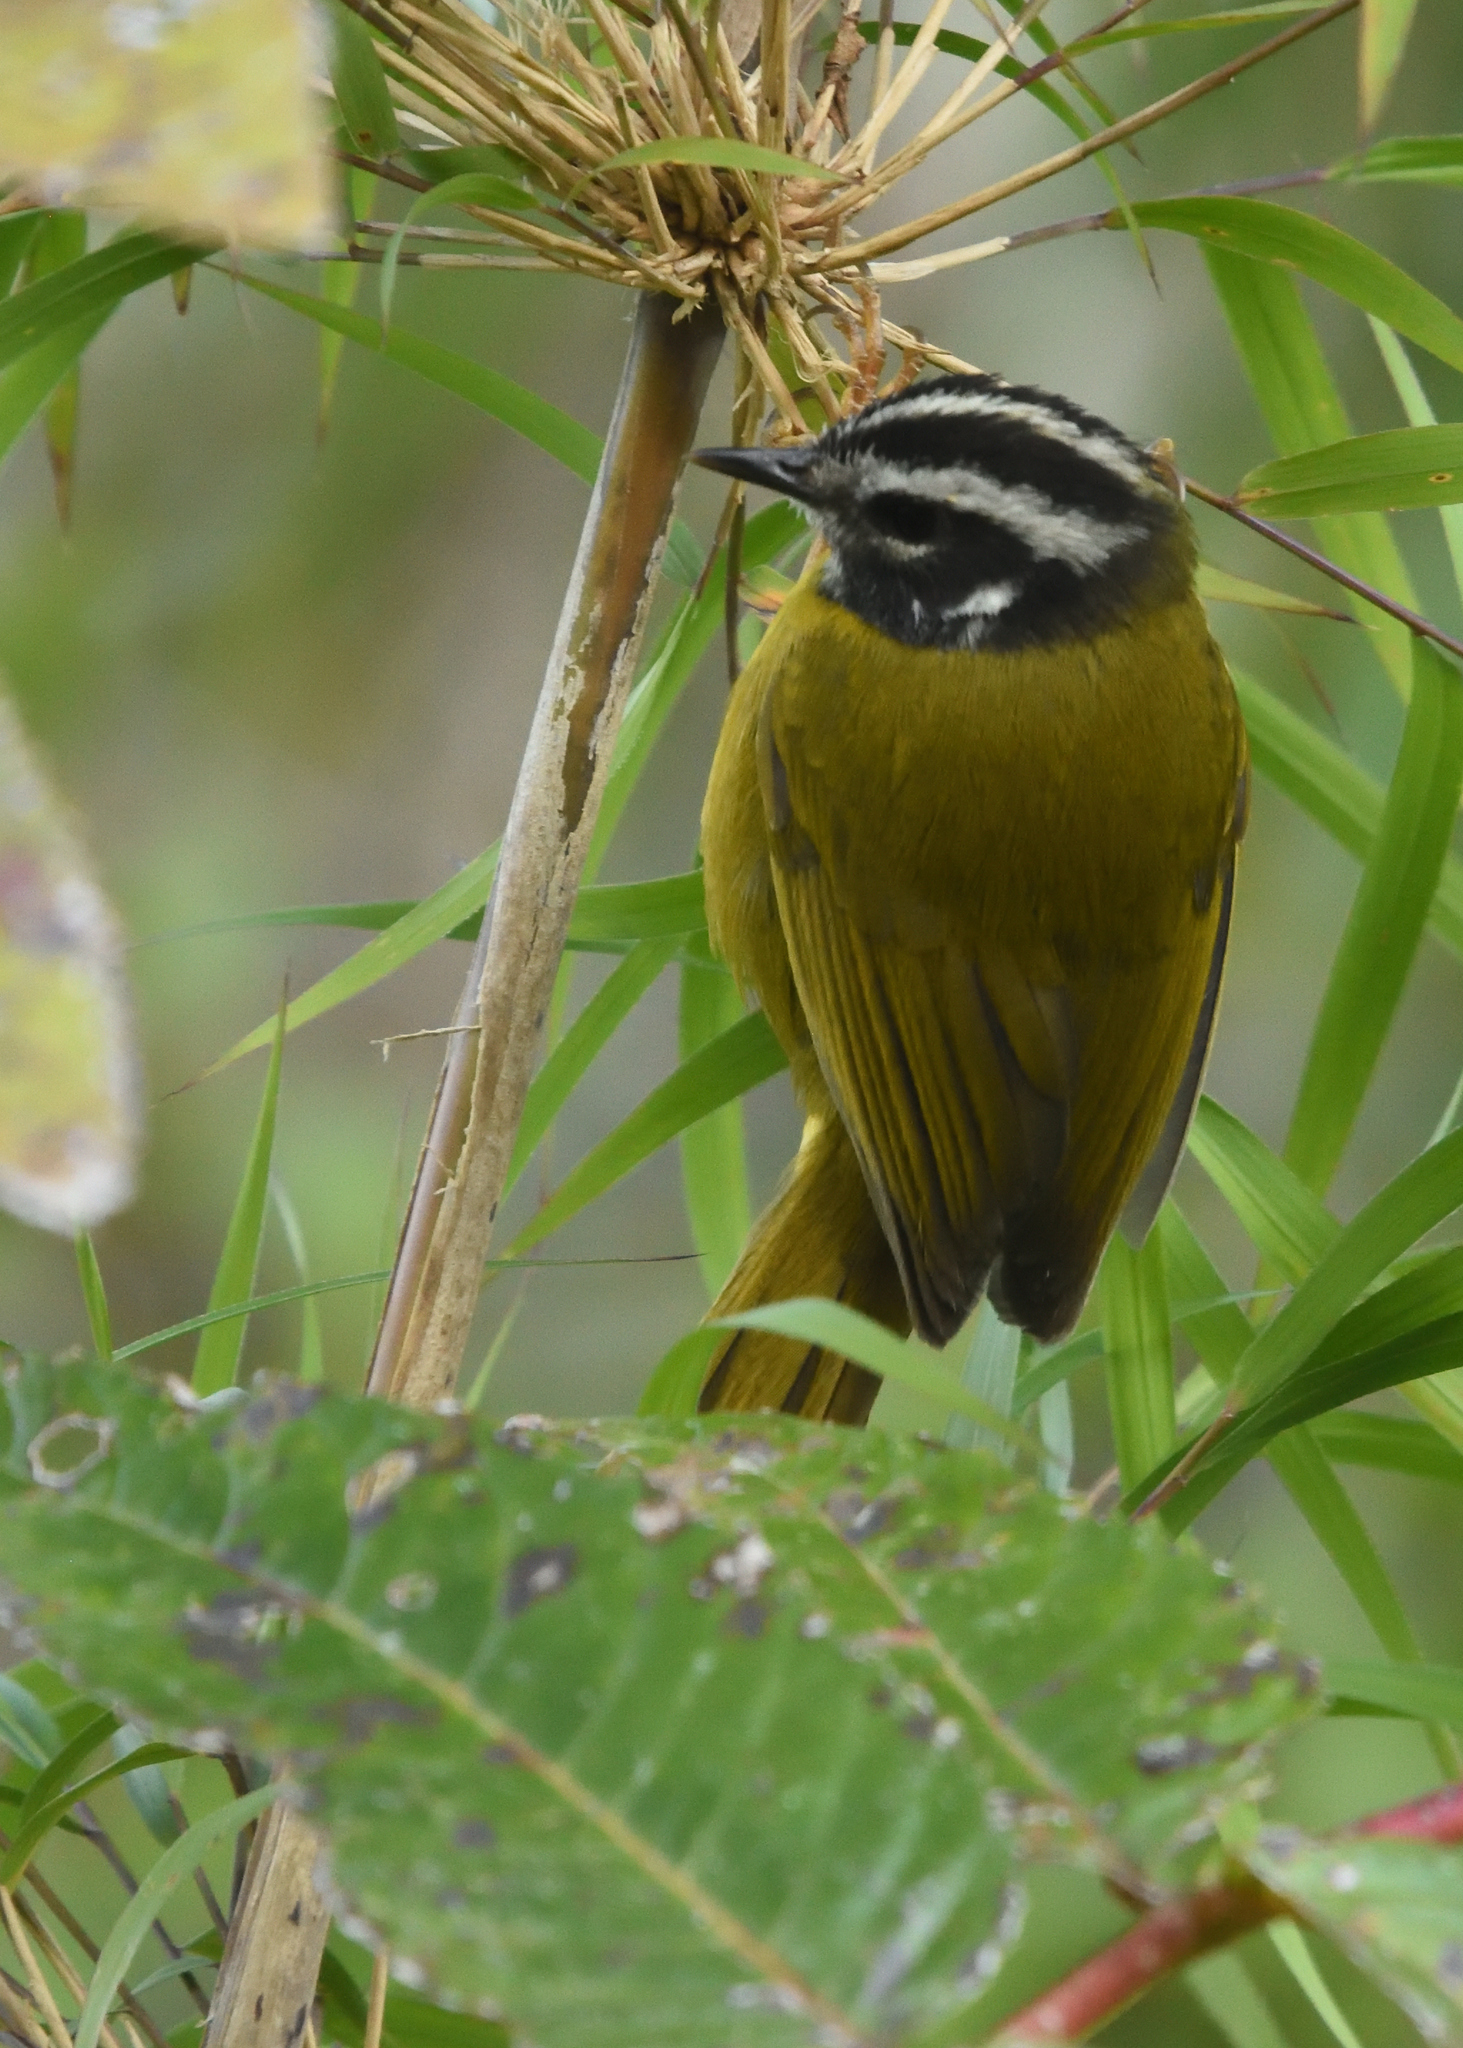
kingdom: Animalia
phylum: Chordata
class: Aves
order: Passeriformes
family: Parulidae
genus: Basileuterus
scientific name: Basileuterus basilicus
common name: Santa marta warbler
